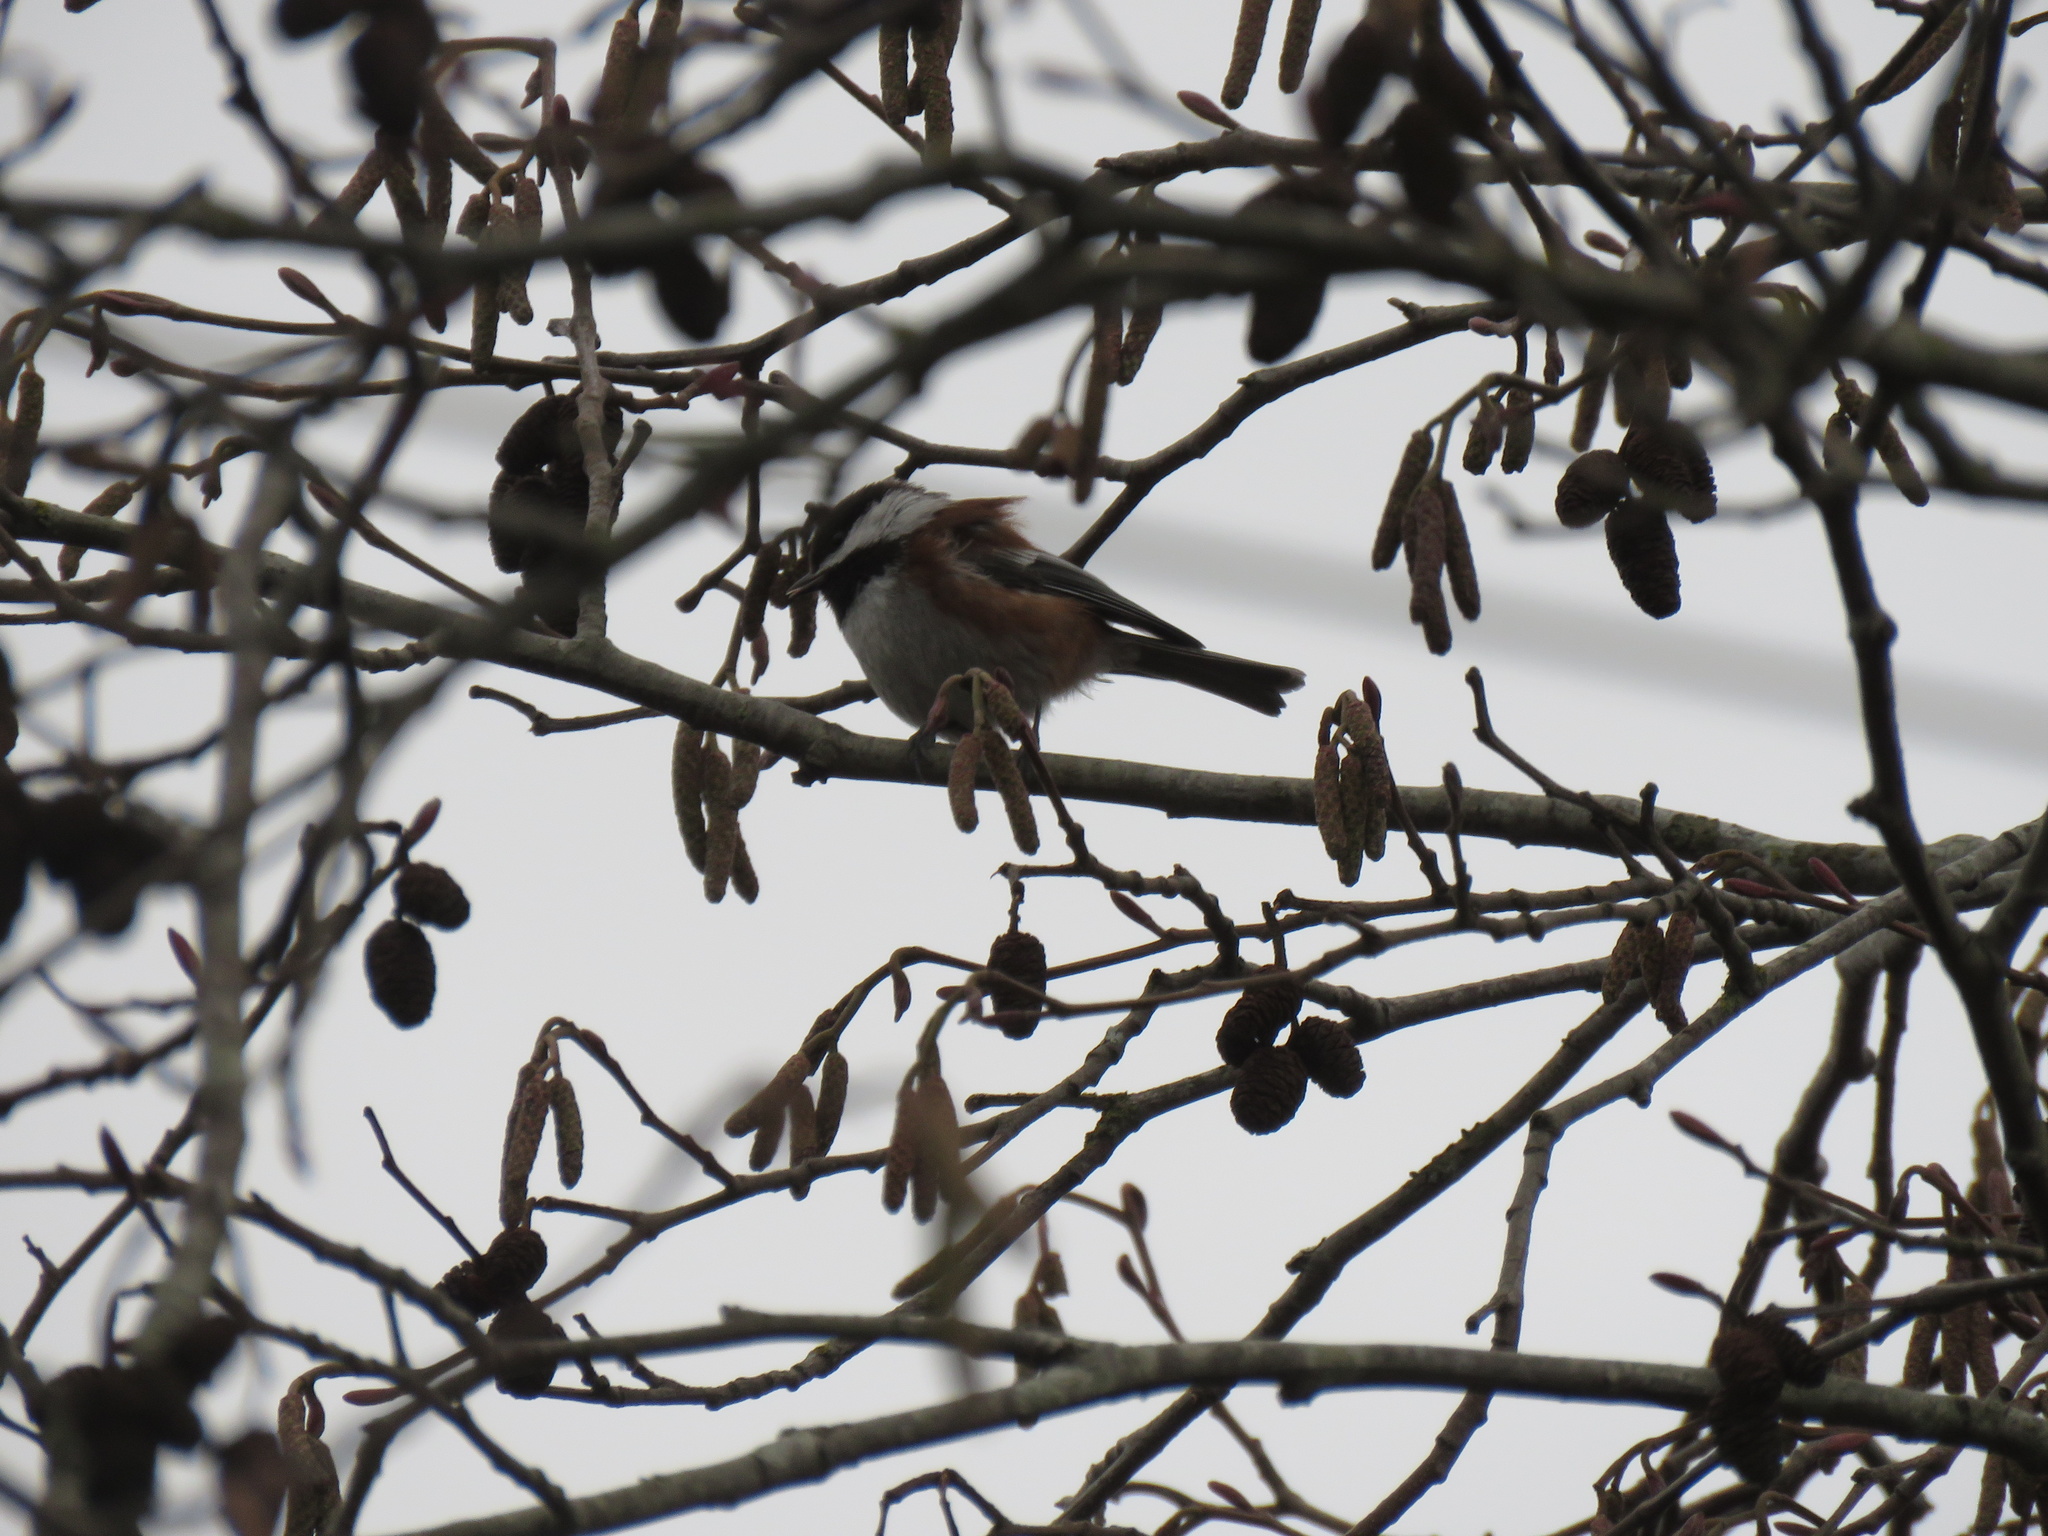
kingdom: Animalia
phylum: Chordata
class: Aves
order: Passeriformes
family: Paridae
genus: Poecile
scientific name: Poecile rufescens
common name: Chestnut-backed chickadee
